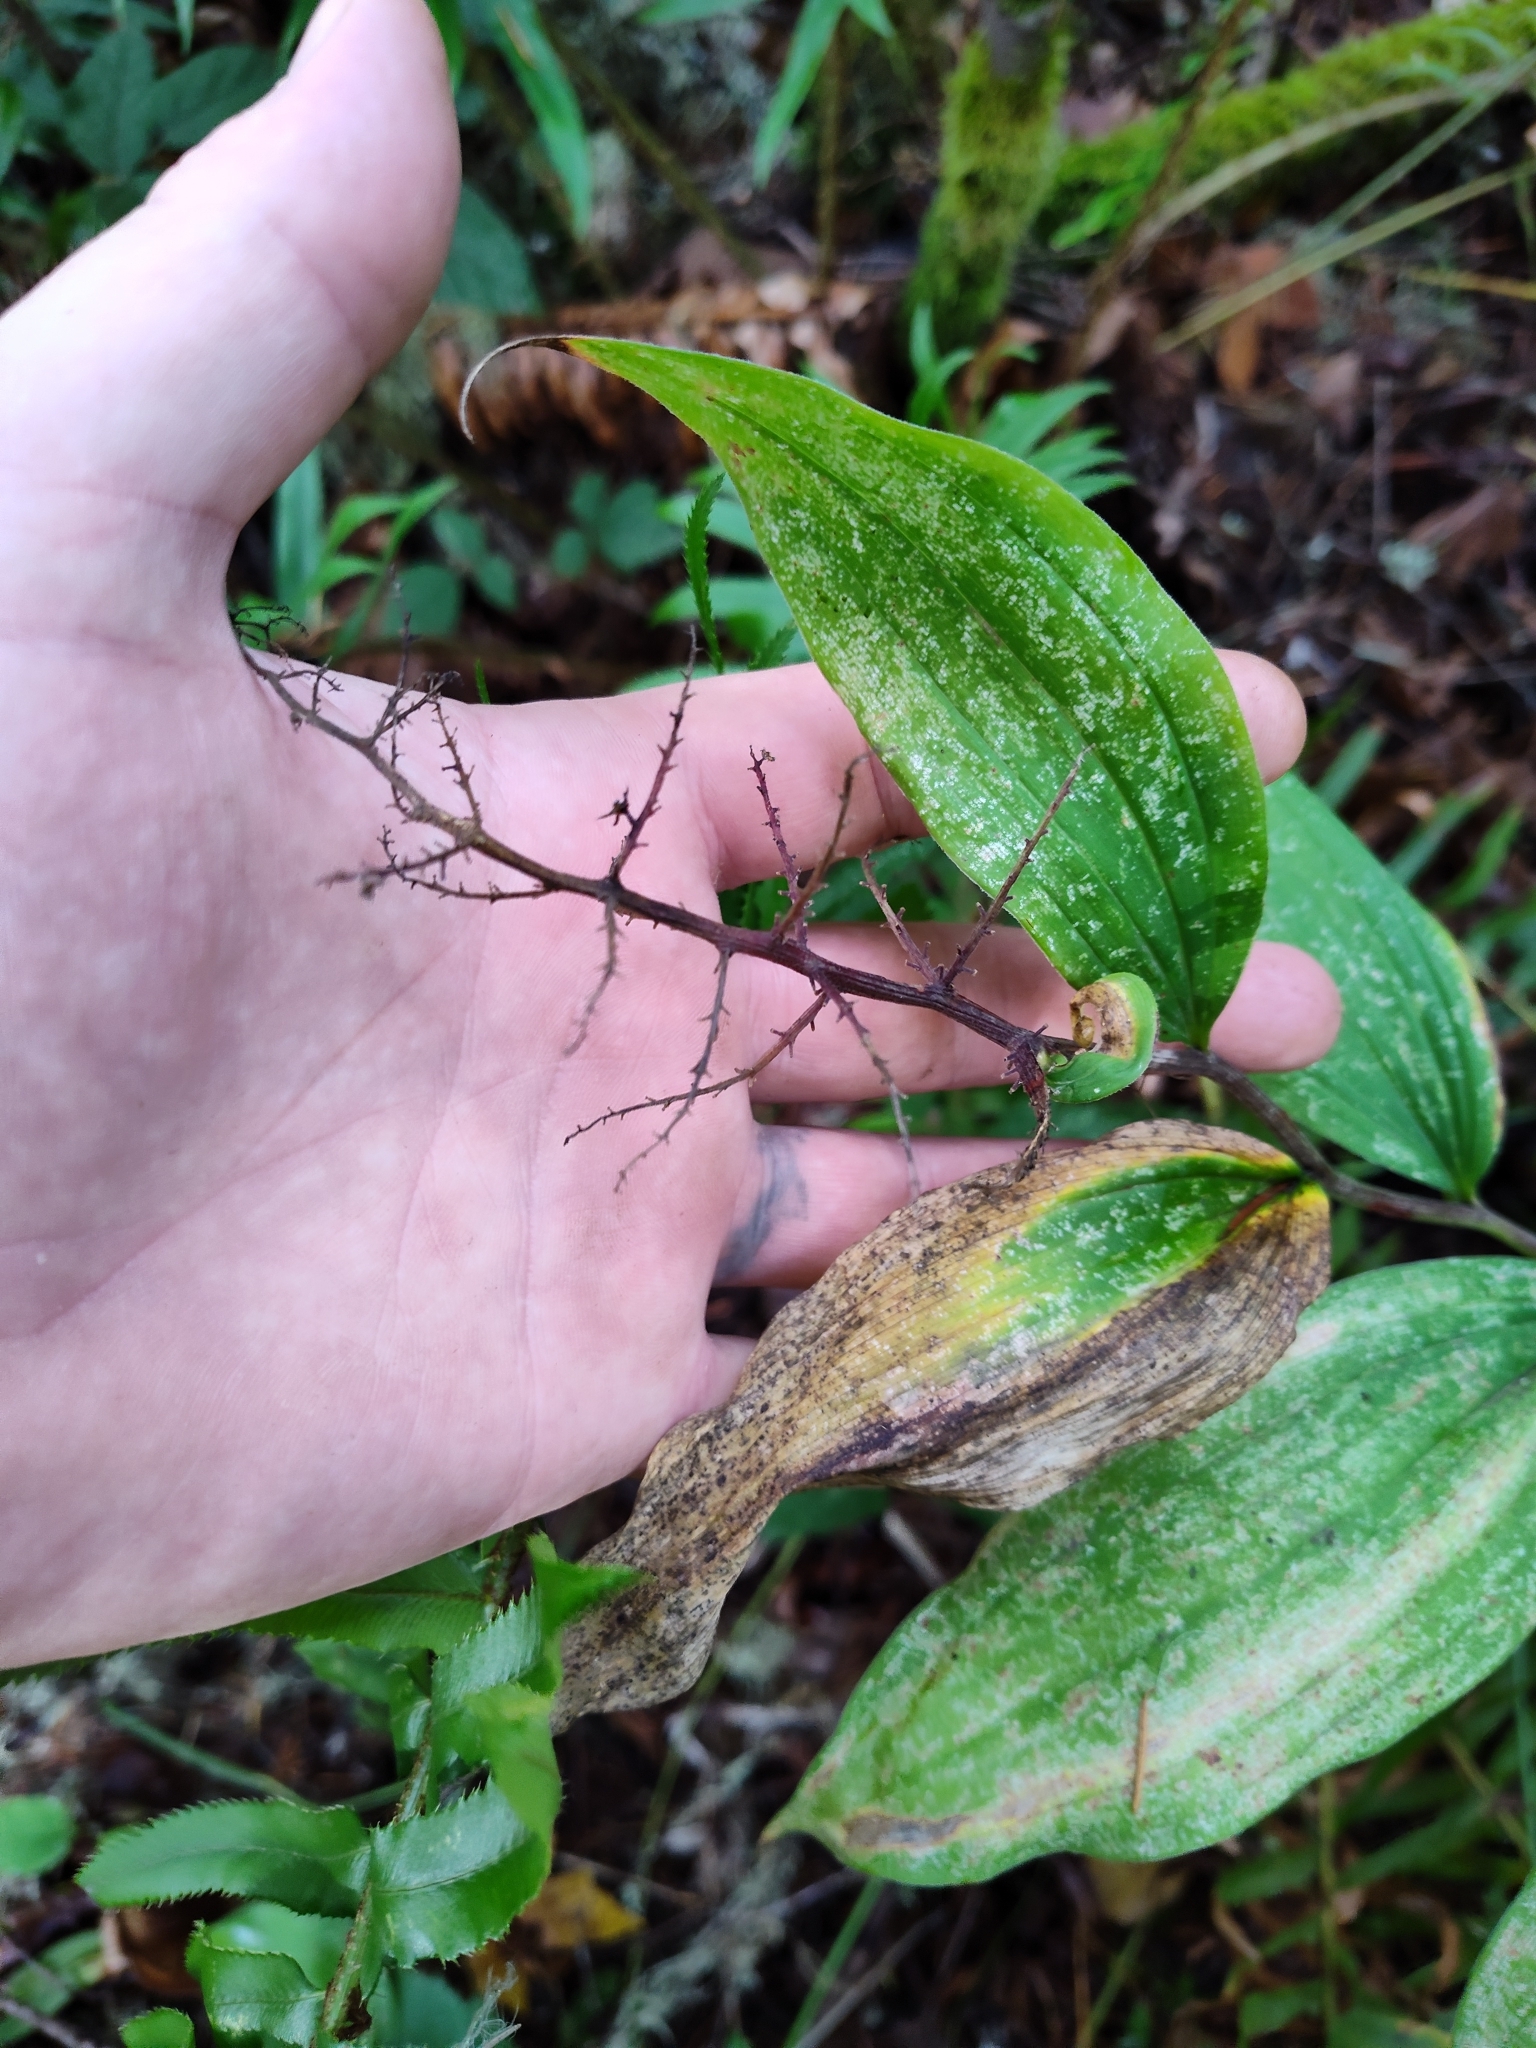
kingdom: Plantae
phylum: Tracheophyta
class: Liliopsida
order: Asparagales
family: Asparagaceae
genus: Maianthemum
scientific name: Maianthemum racemosum
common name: False spikenard
